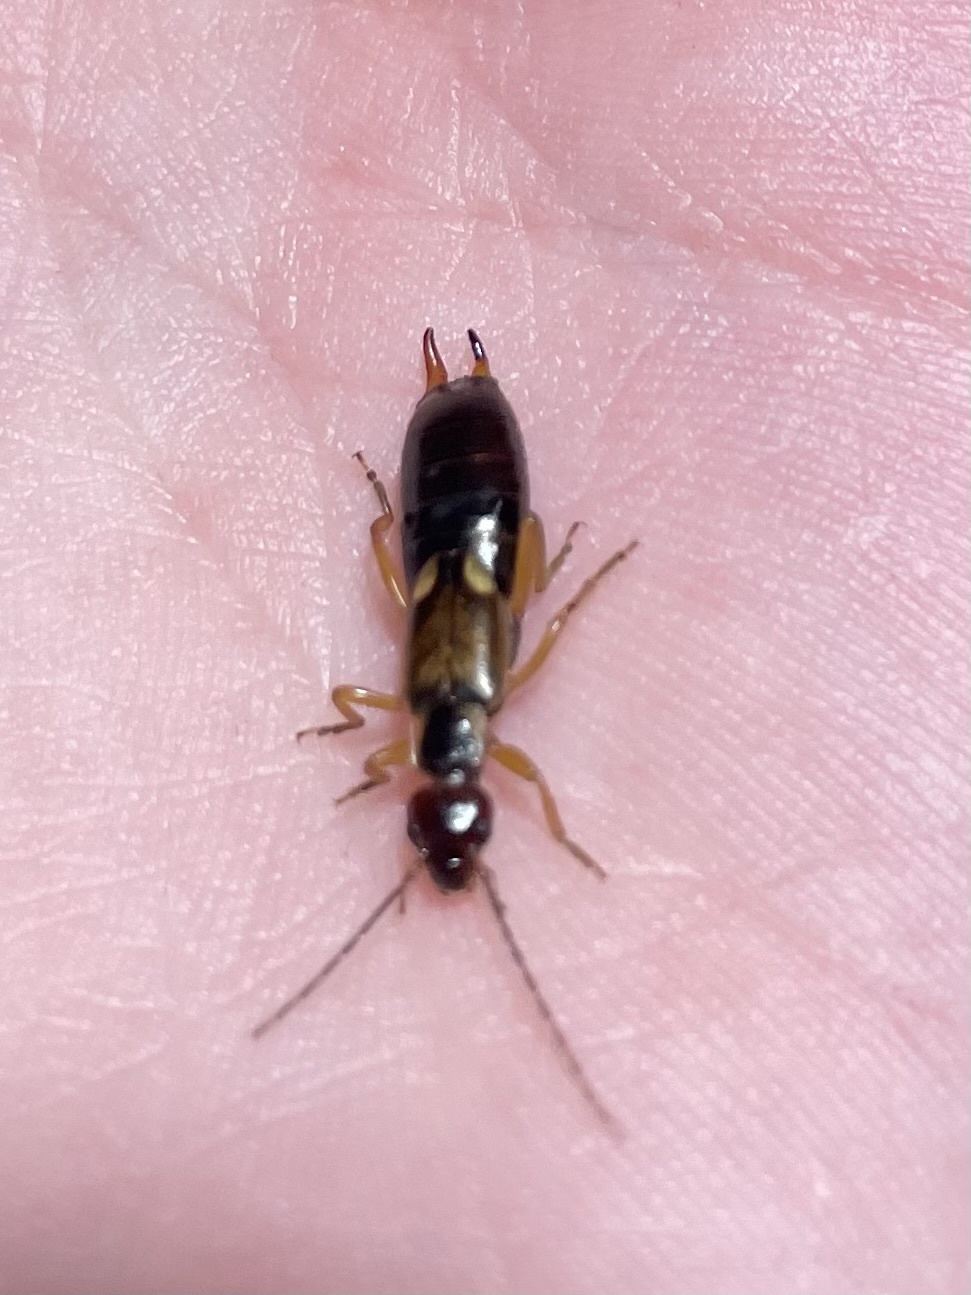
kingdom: Animalia
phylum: Arthropoda
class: Insecta
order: Dermaptera
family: Forficulidae
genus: Forficula
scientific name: Forficula
